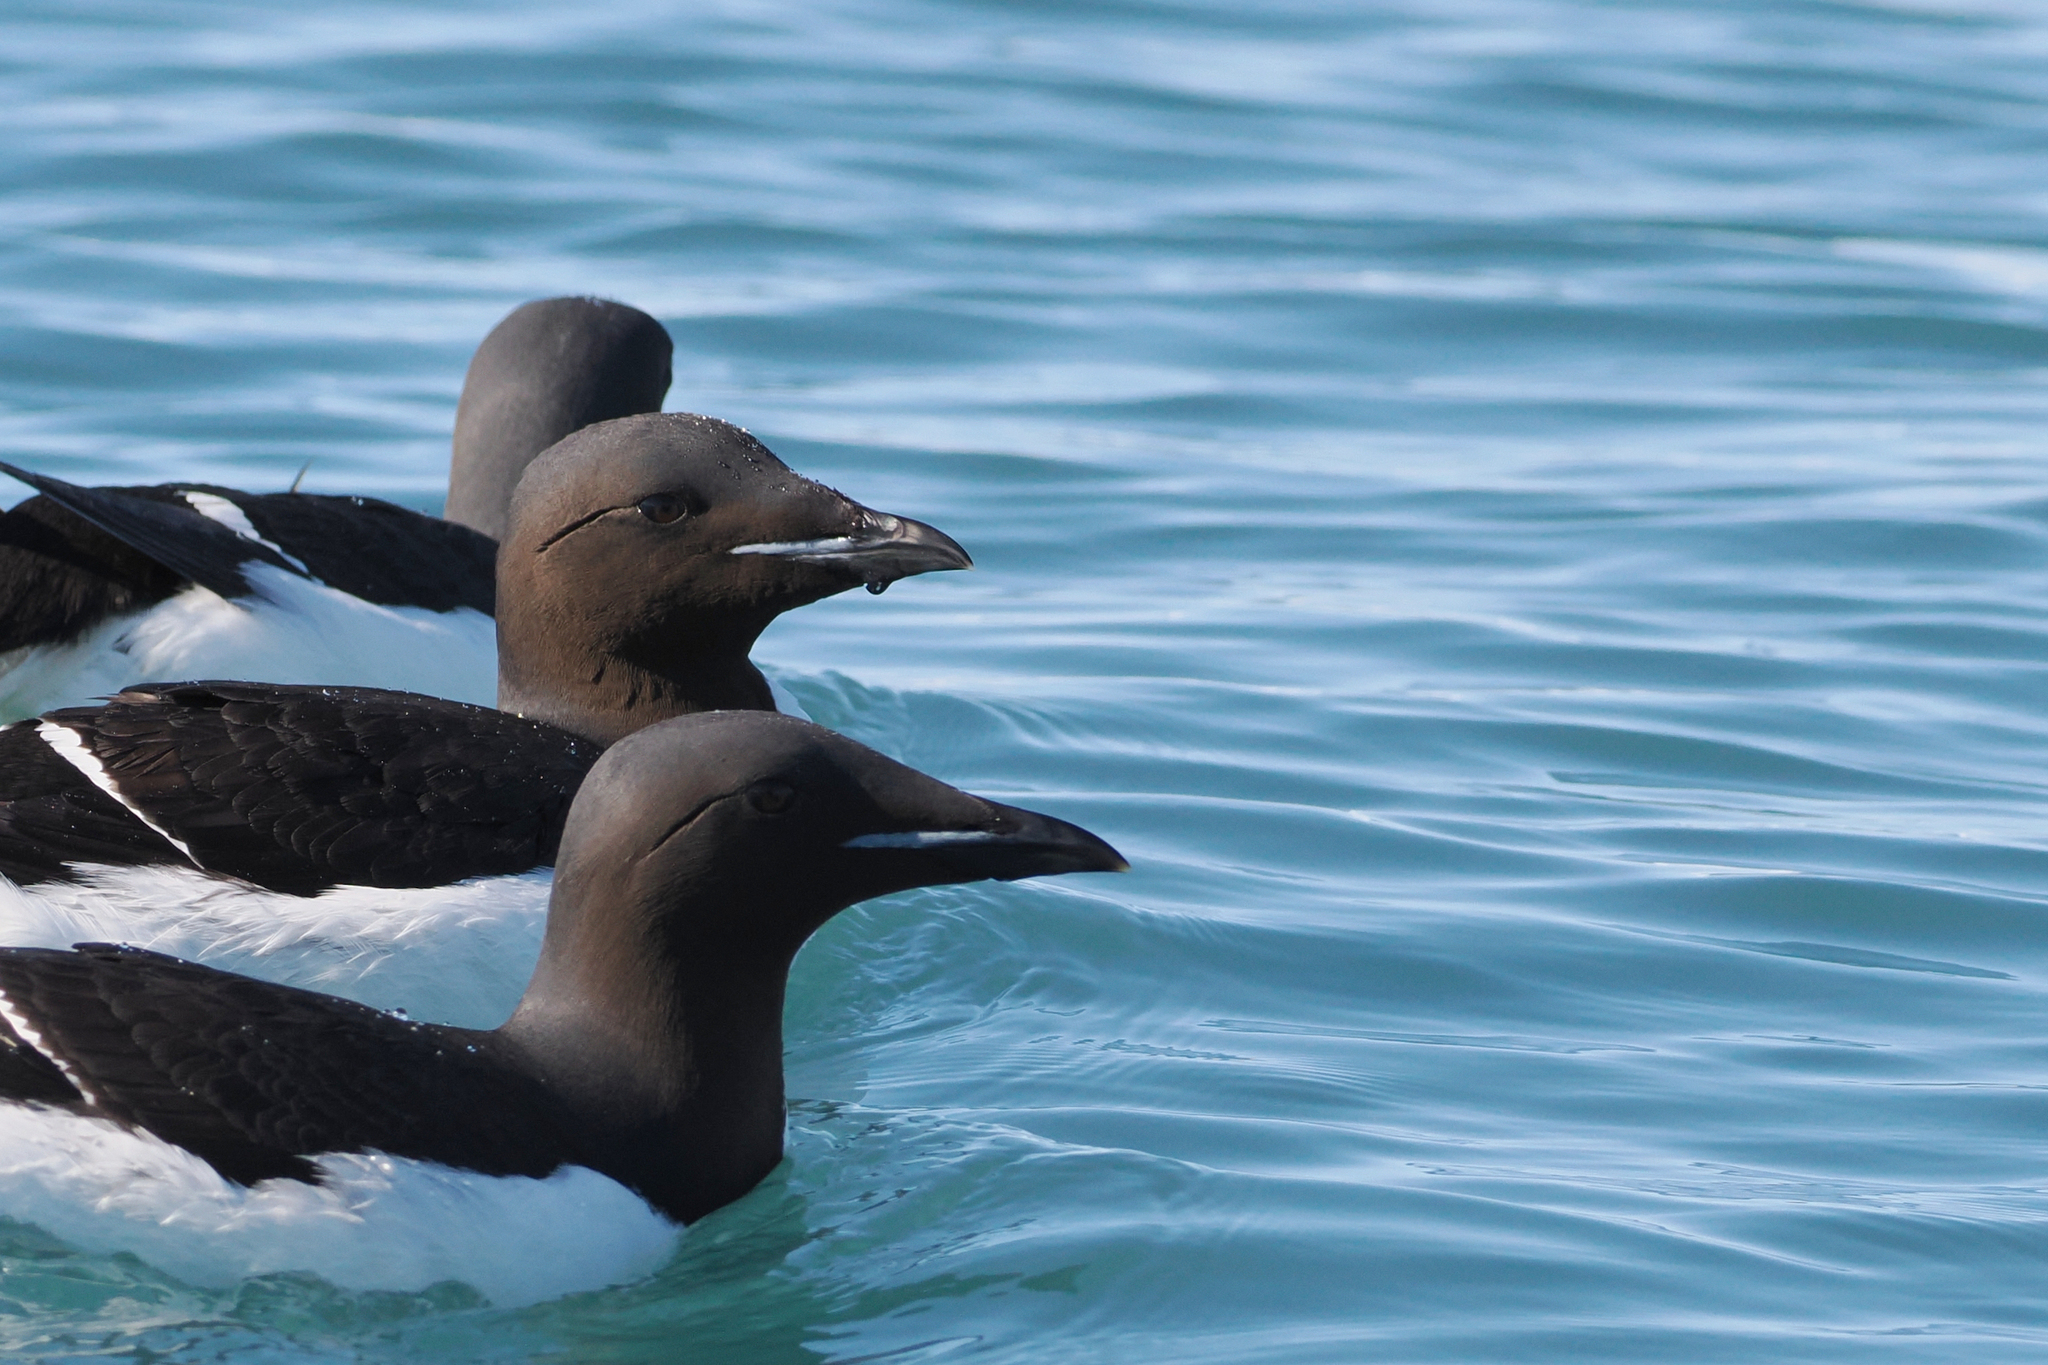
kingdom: Animalia
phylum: Chordata
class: Aves
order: Charadriiformes
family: Alcidae
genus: Uria
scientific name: Uria lomvia
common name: Thick-billed murre
